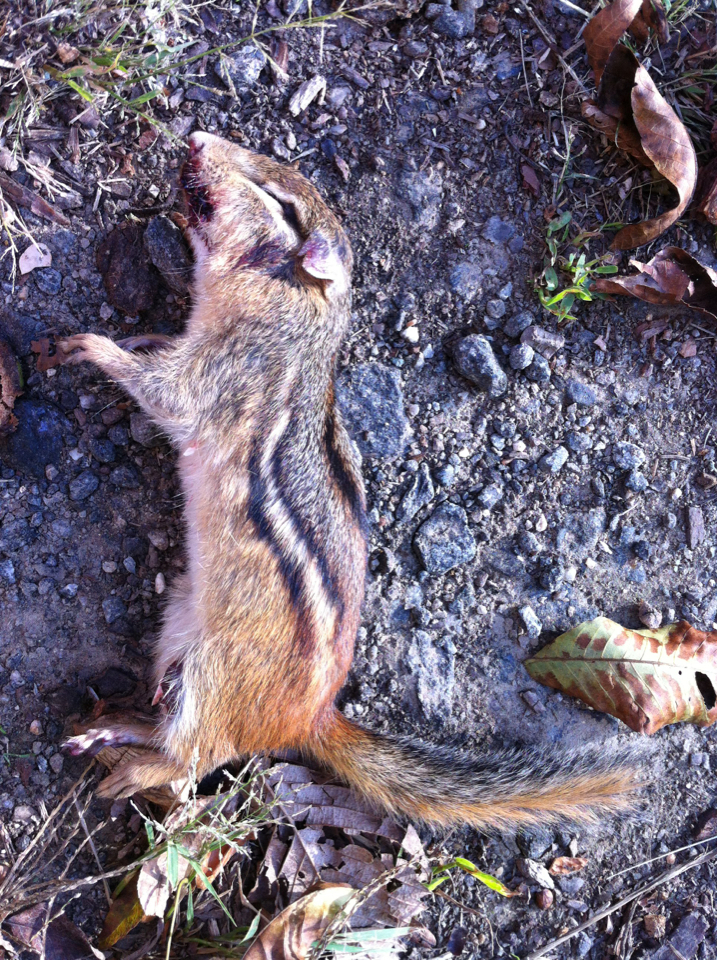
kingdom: Animalia
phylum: Chordata
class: Mammalia
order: Rodentia
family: Sciuridae
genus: Tamias
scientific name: Tamias striatus
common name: Eastern chipmunk
